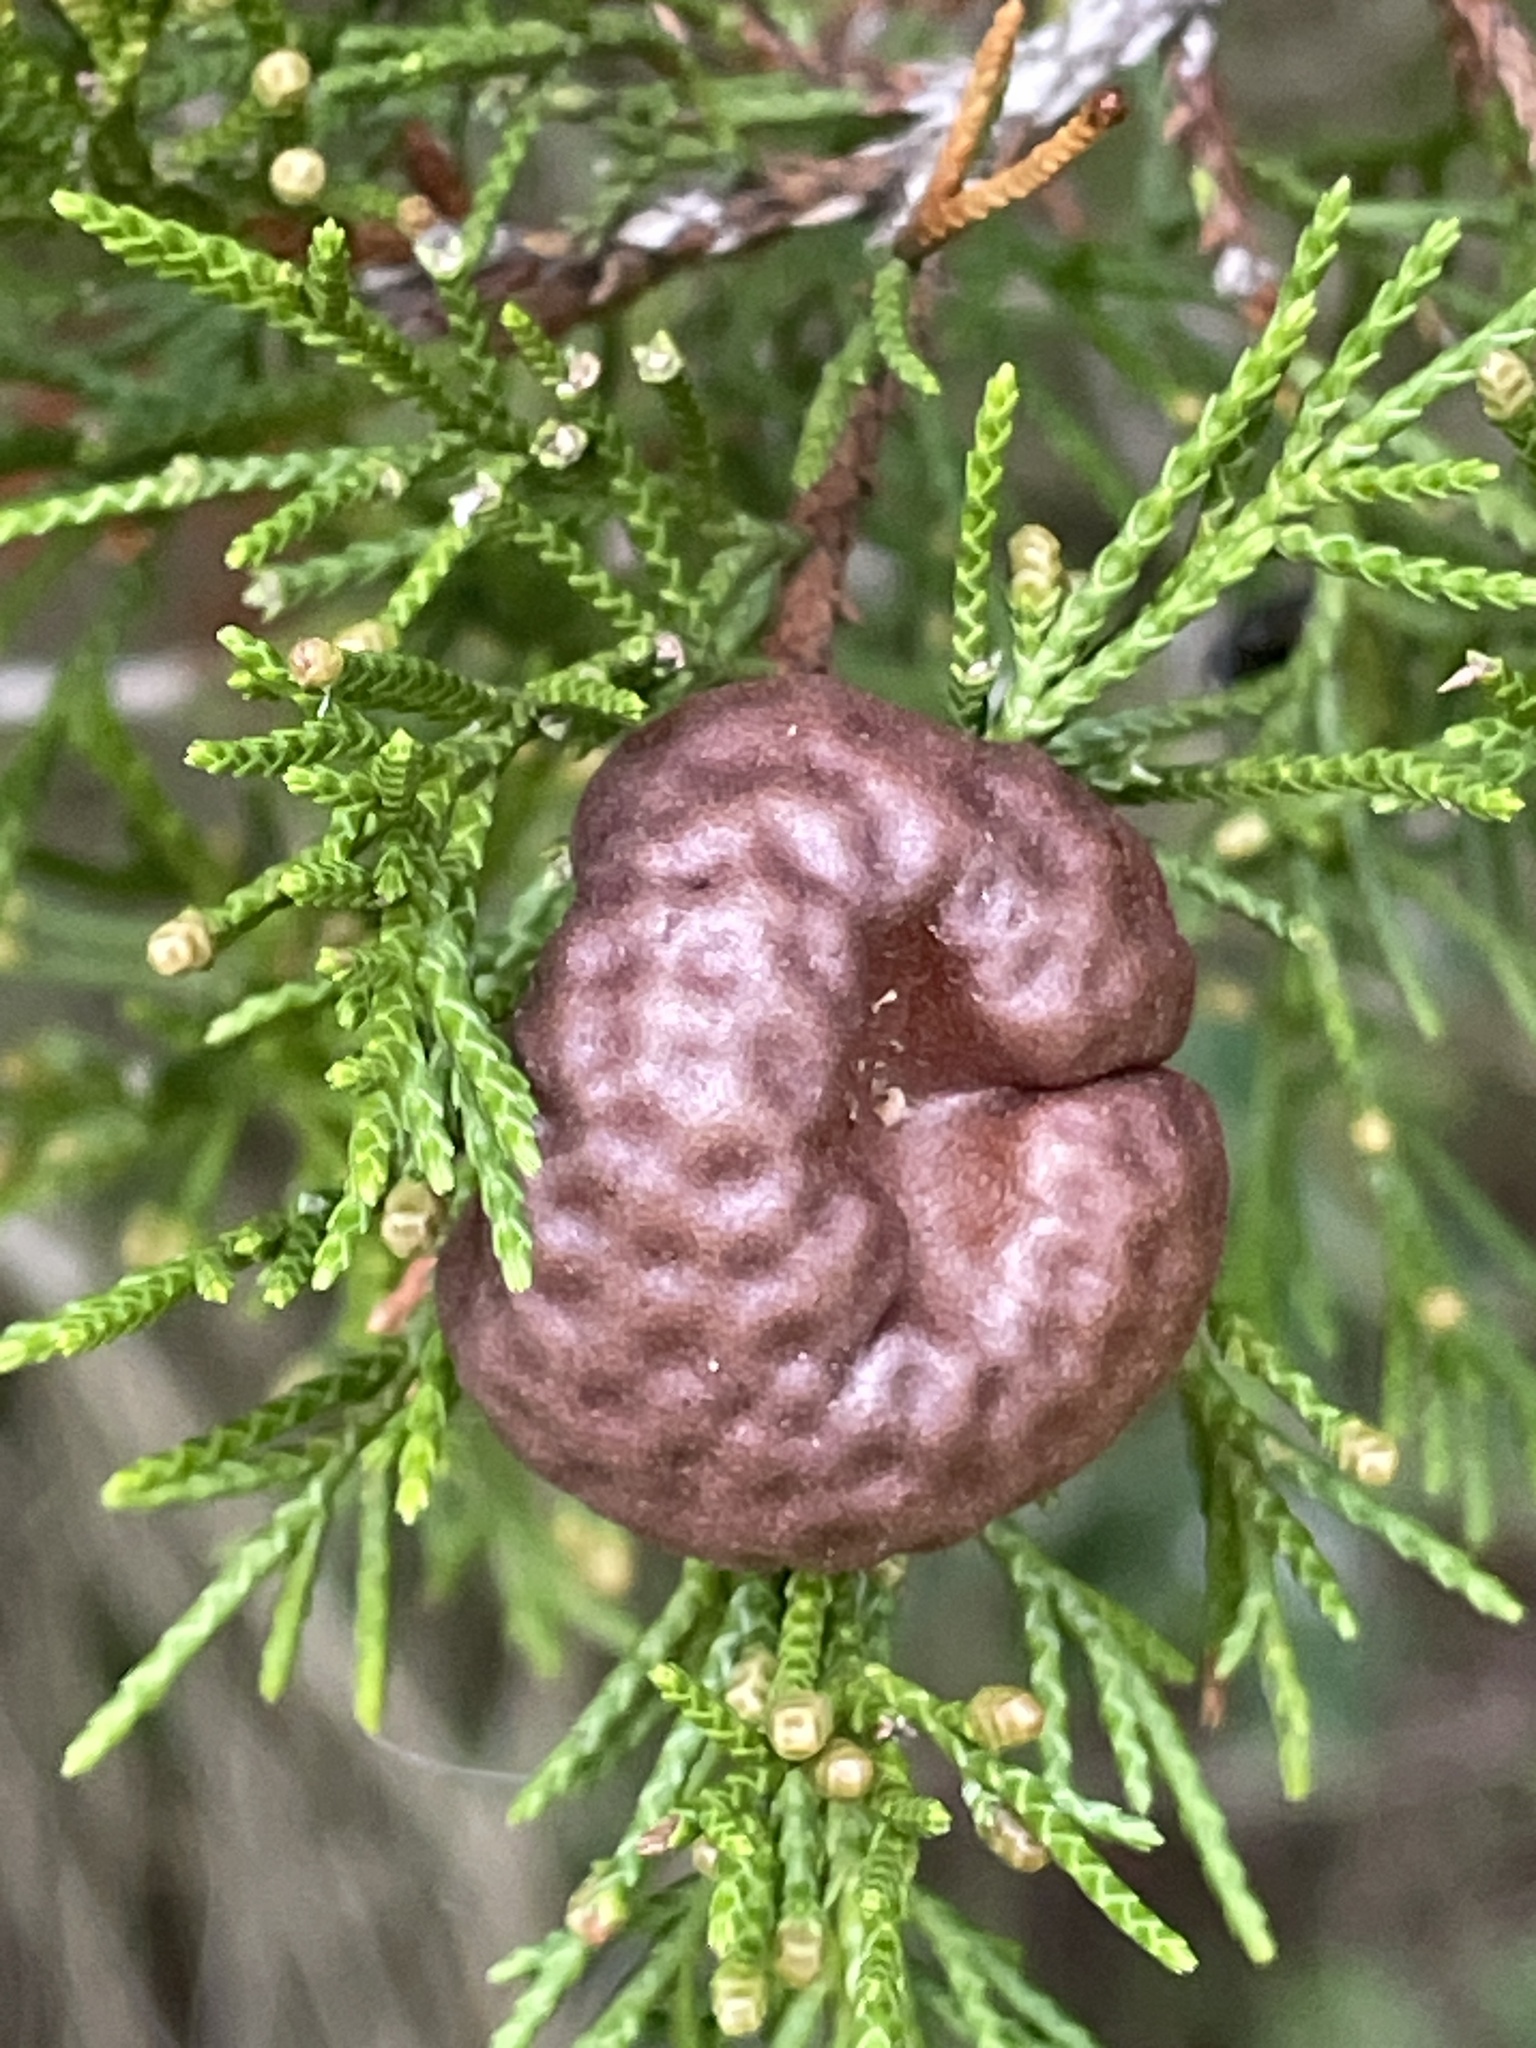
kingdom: Fungi
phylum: Basidiomycota
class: Pucciniomycetes
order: Pucciniales
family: Gymnosporangiaceae
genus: Gymnosporangium
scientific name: Gymnosporangium juniperi-virginianae
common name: Juniper-apple rust
